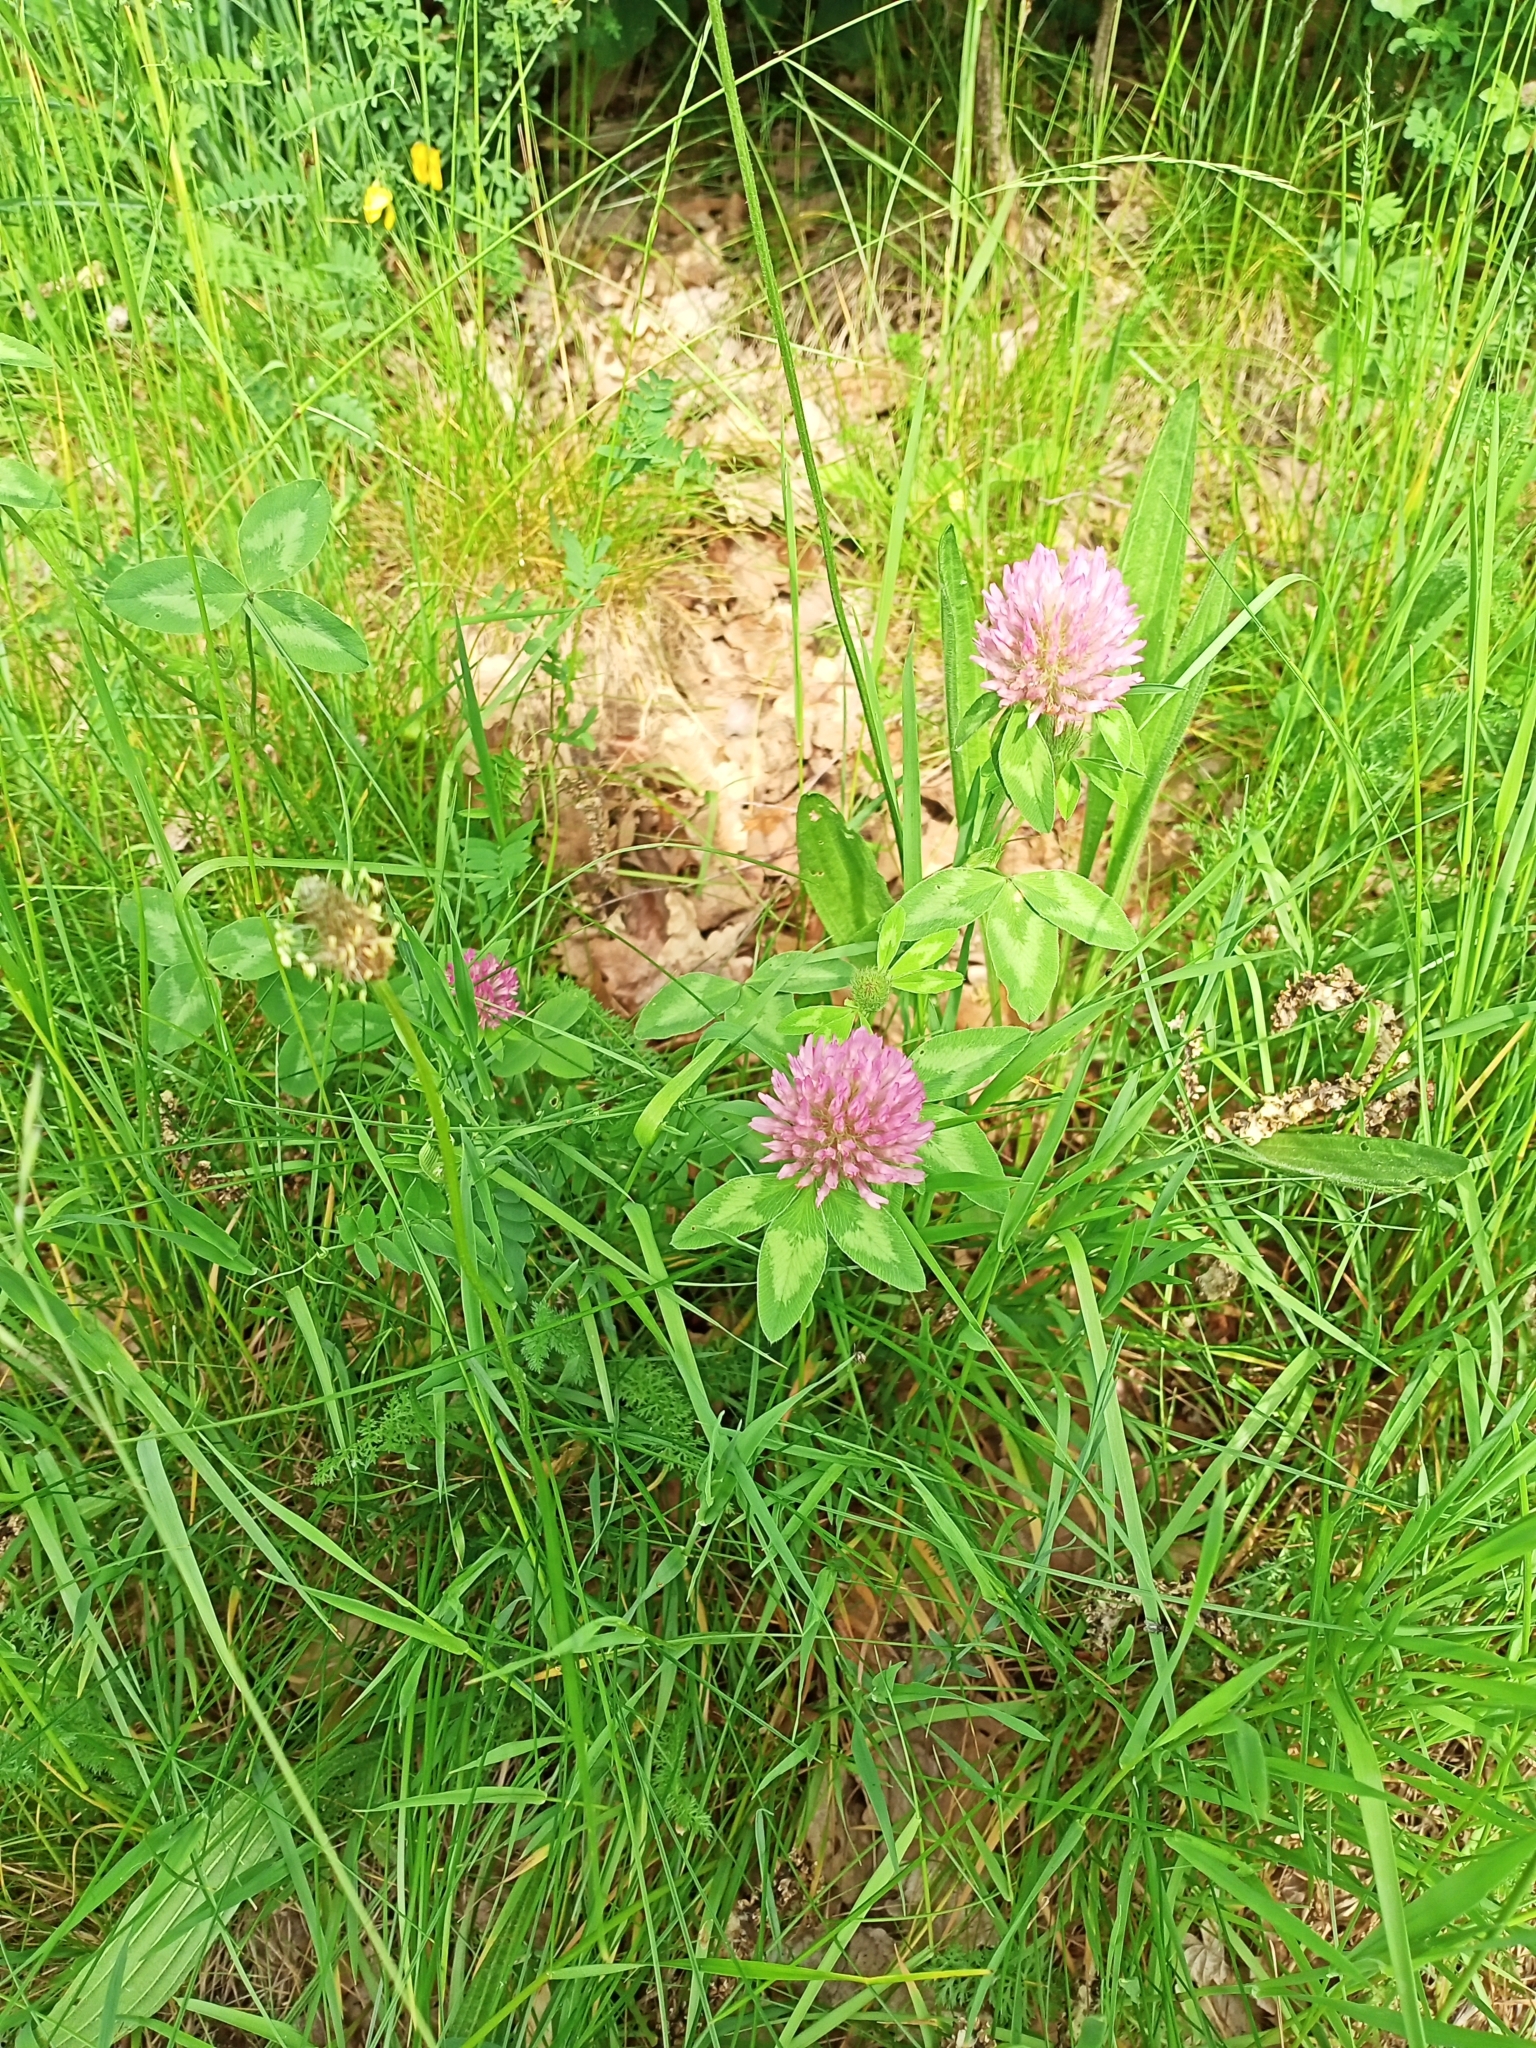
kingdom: Plantae
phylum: Tracheophyta
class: Magnoliopsida
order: Fabales
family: Fabaceae
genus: Trifolium
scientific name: Trifolium pratense
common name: Red clover
